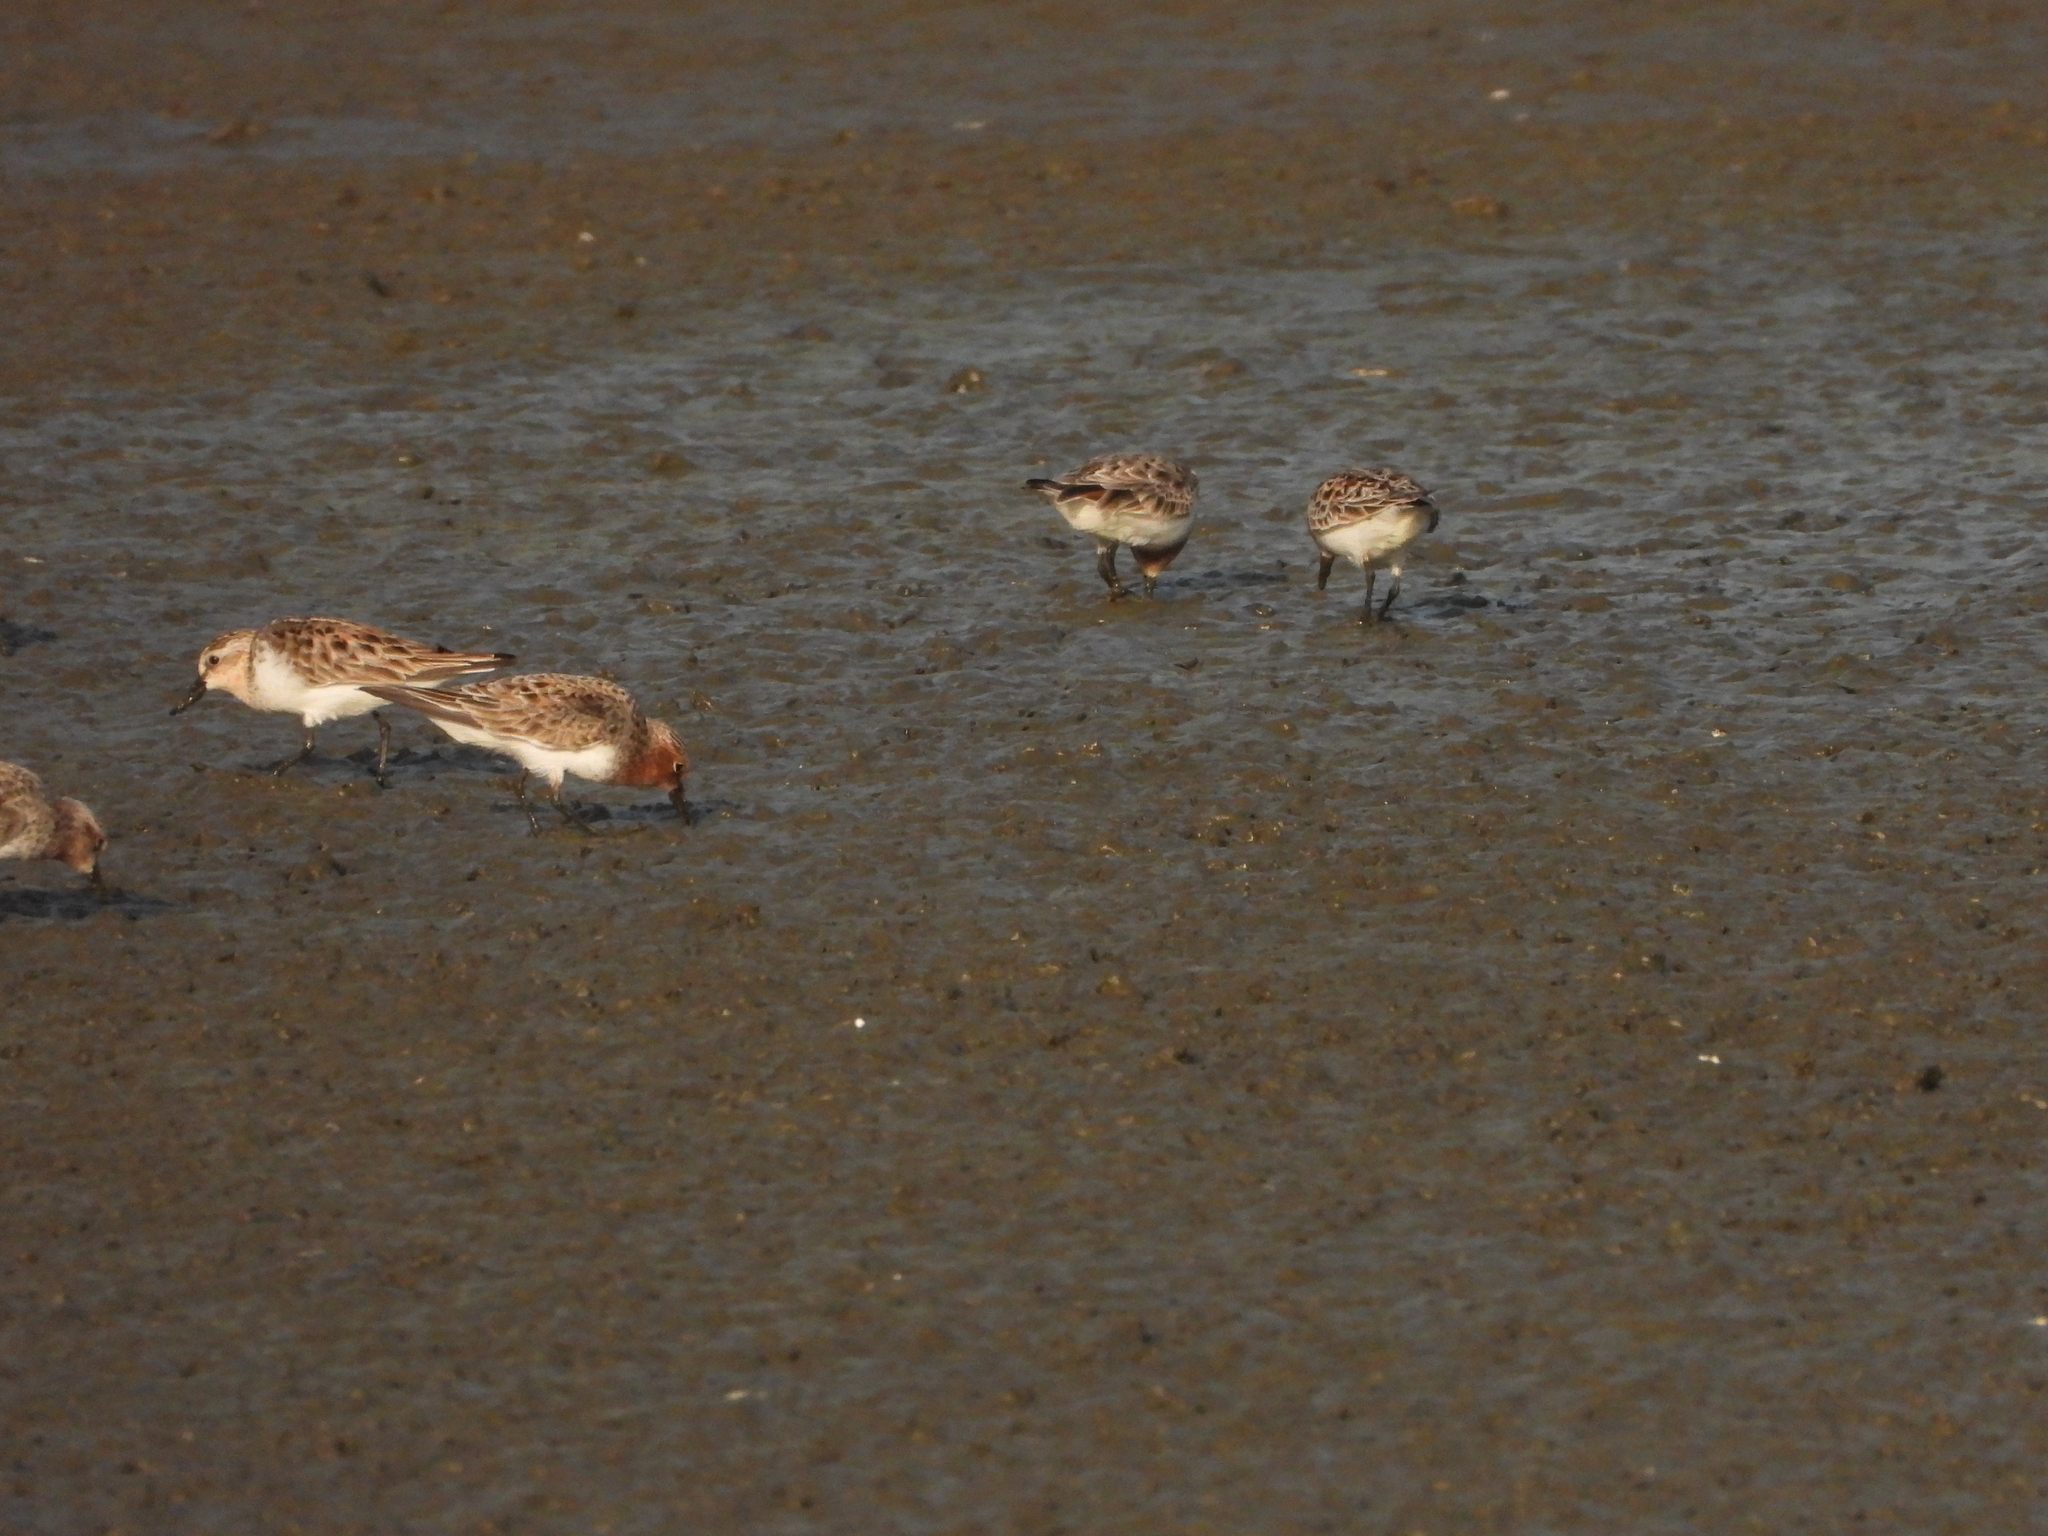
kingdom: Animalia
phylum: Chordata
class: Aves
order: Charadriiformes
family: Scolopacidae
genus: Calidris
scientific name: Calidris ruficollis
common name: Red-necked stint
